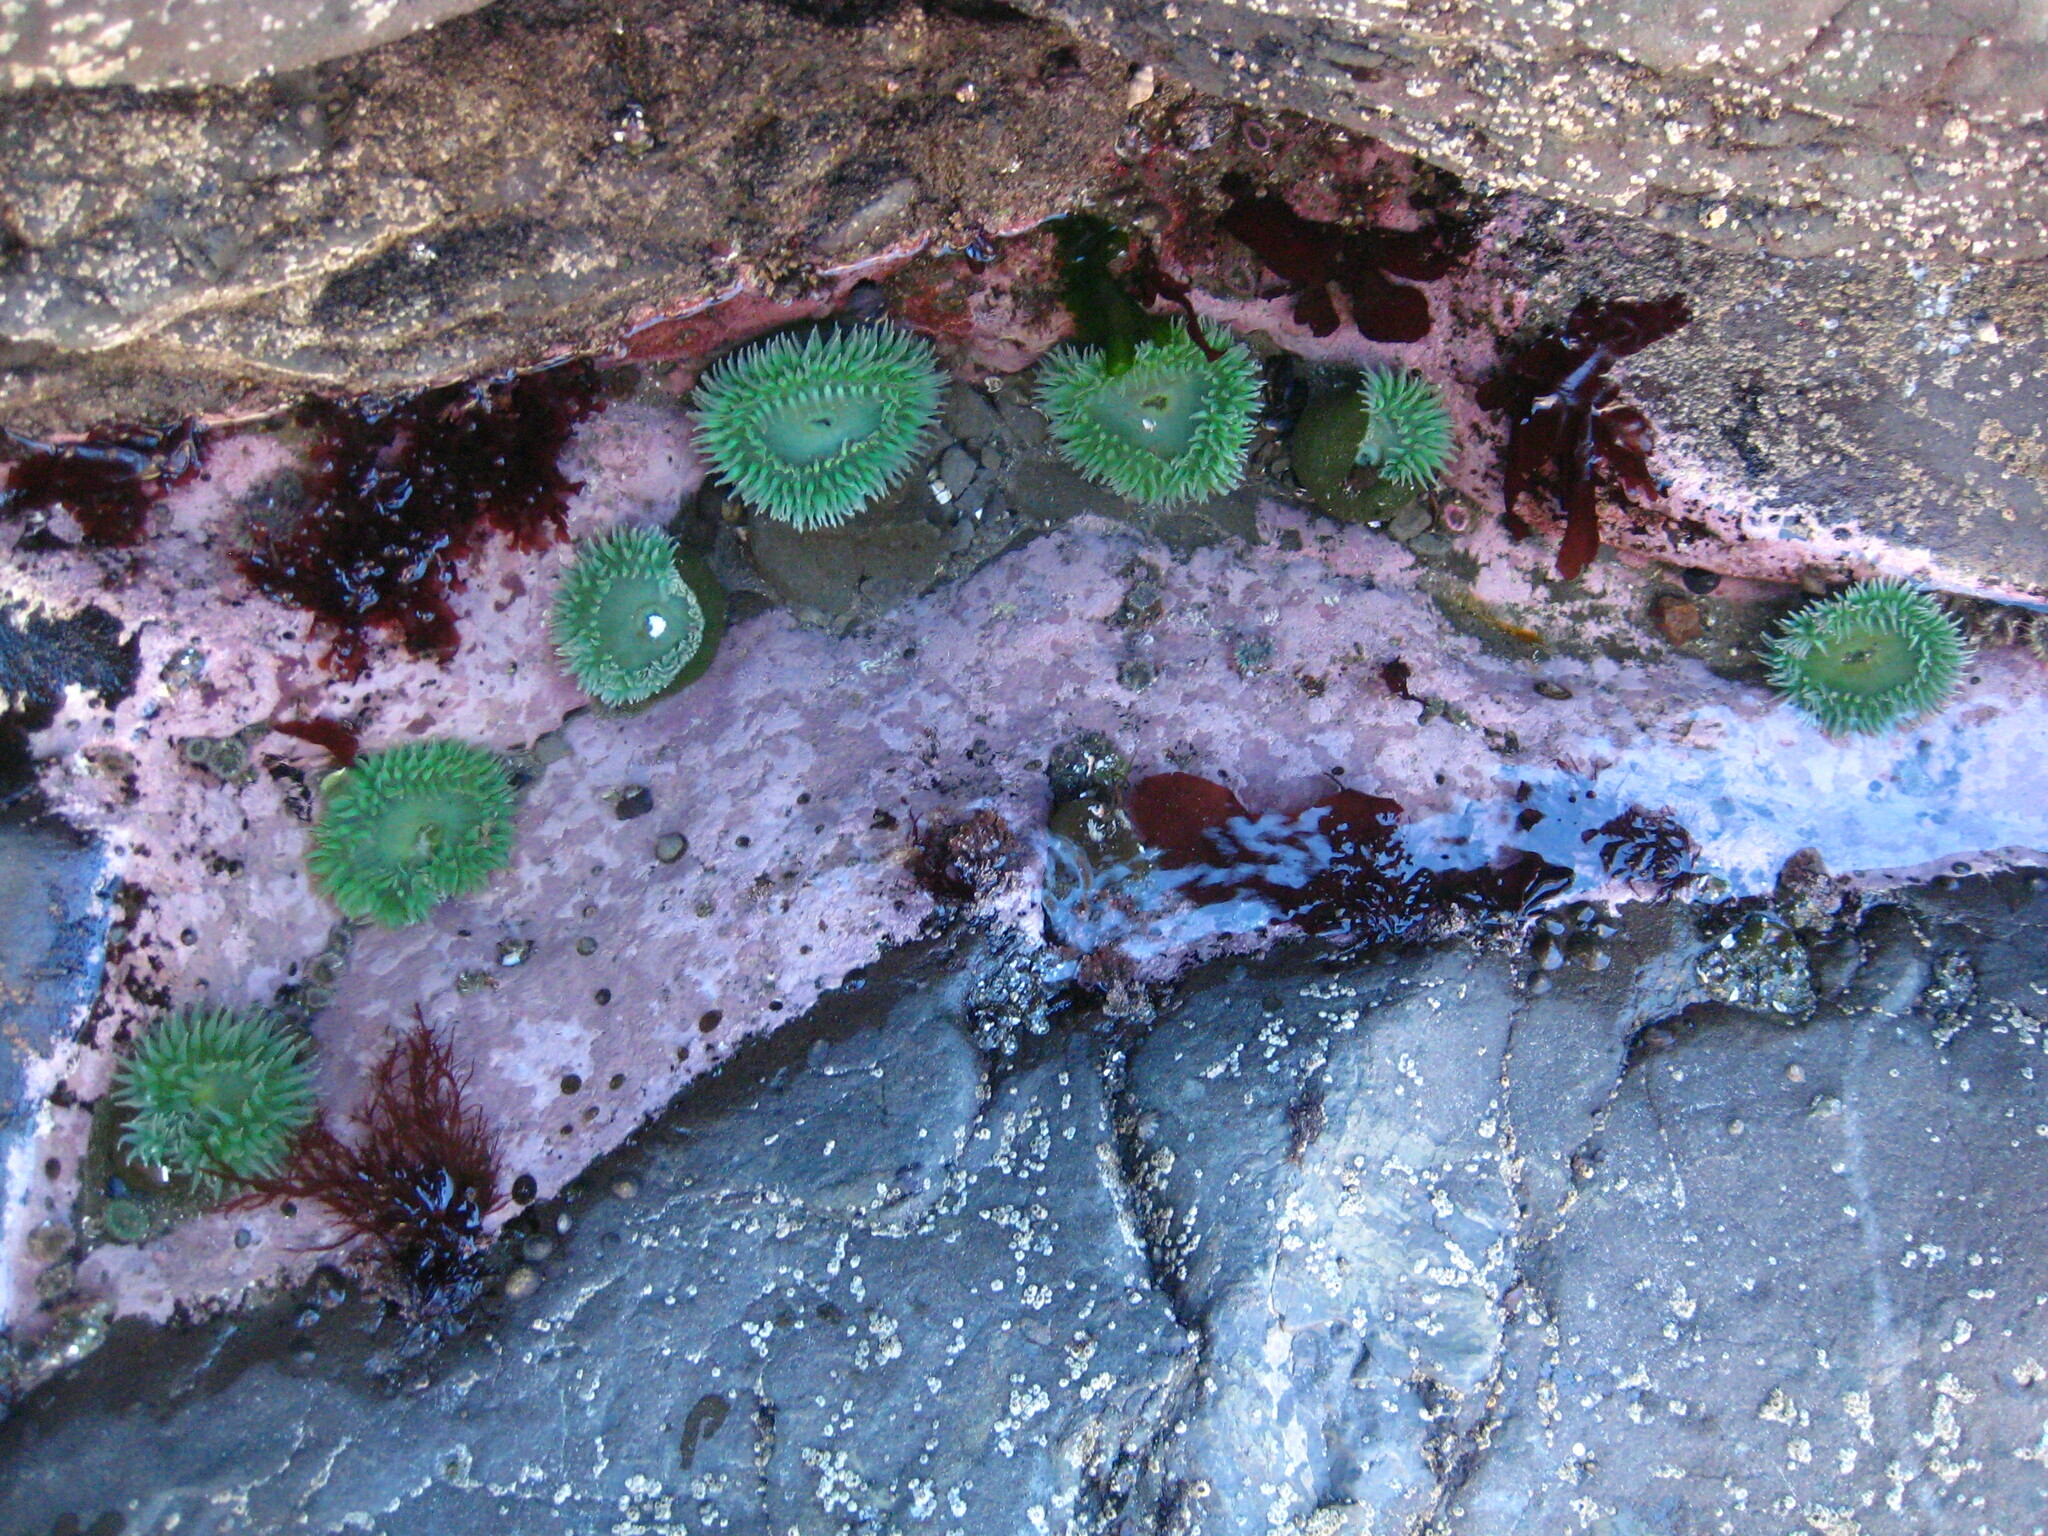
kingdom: Animalia
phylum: Cnidaria
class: Anthozoa
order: Actiniaria
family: Actiniidae
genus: Anthopleura
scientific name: Anthopleura xanthogrammica
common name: Giant green anemone
